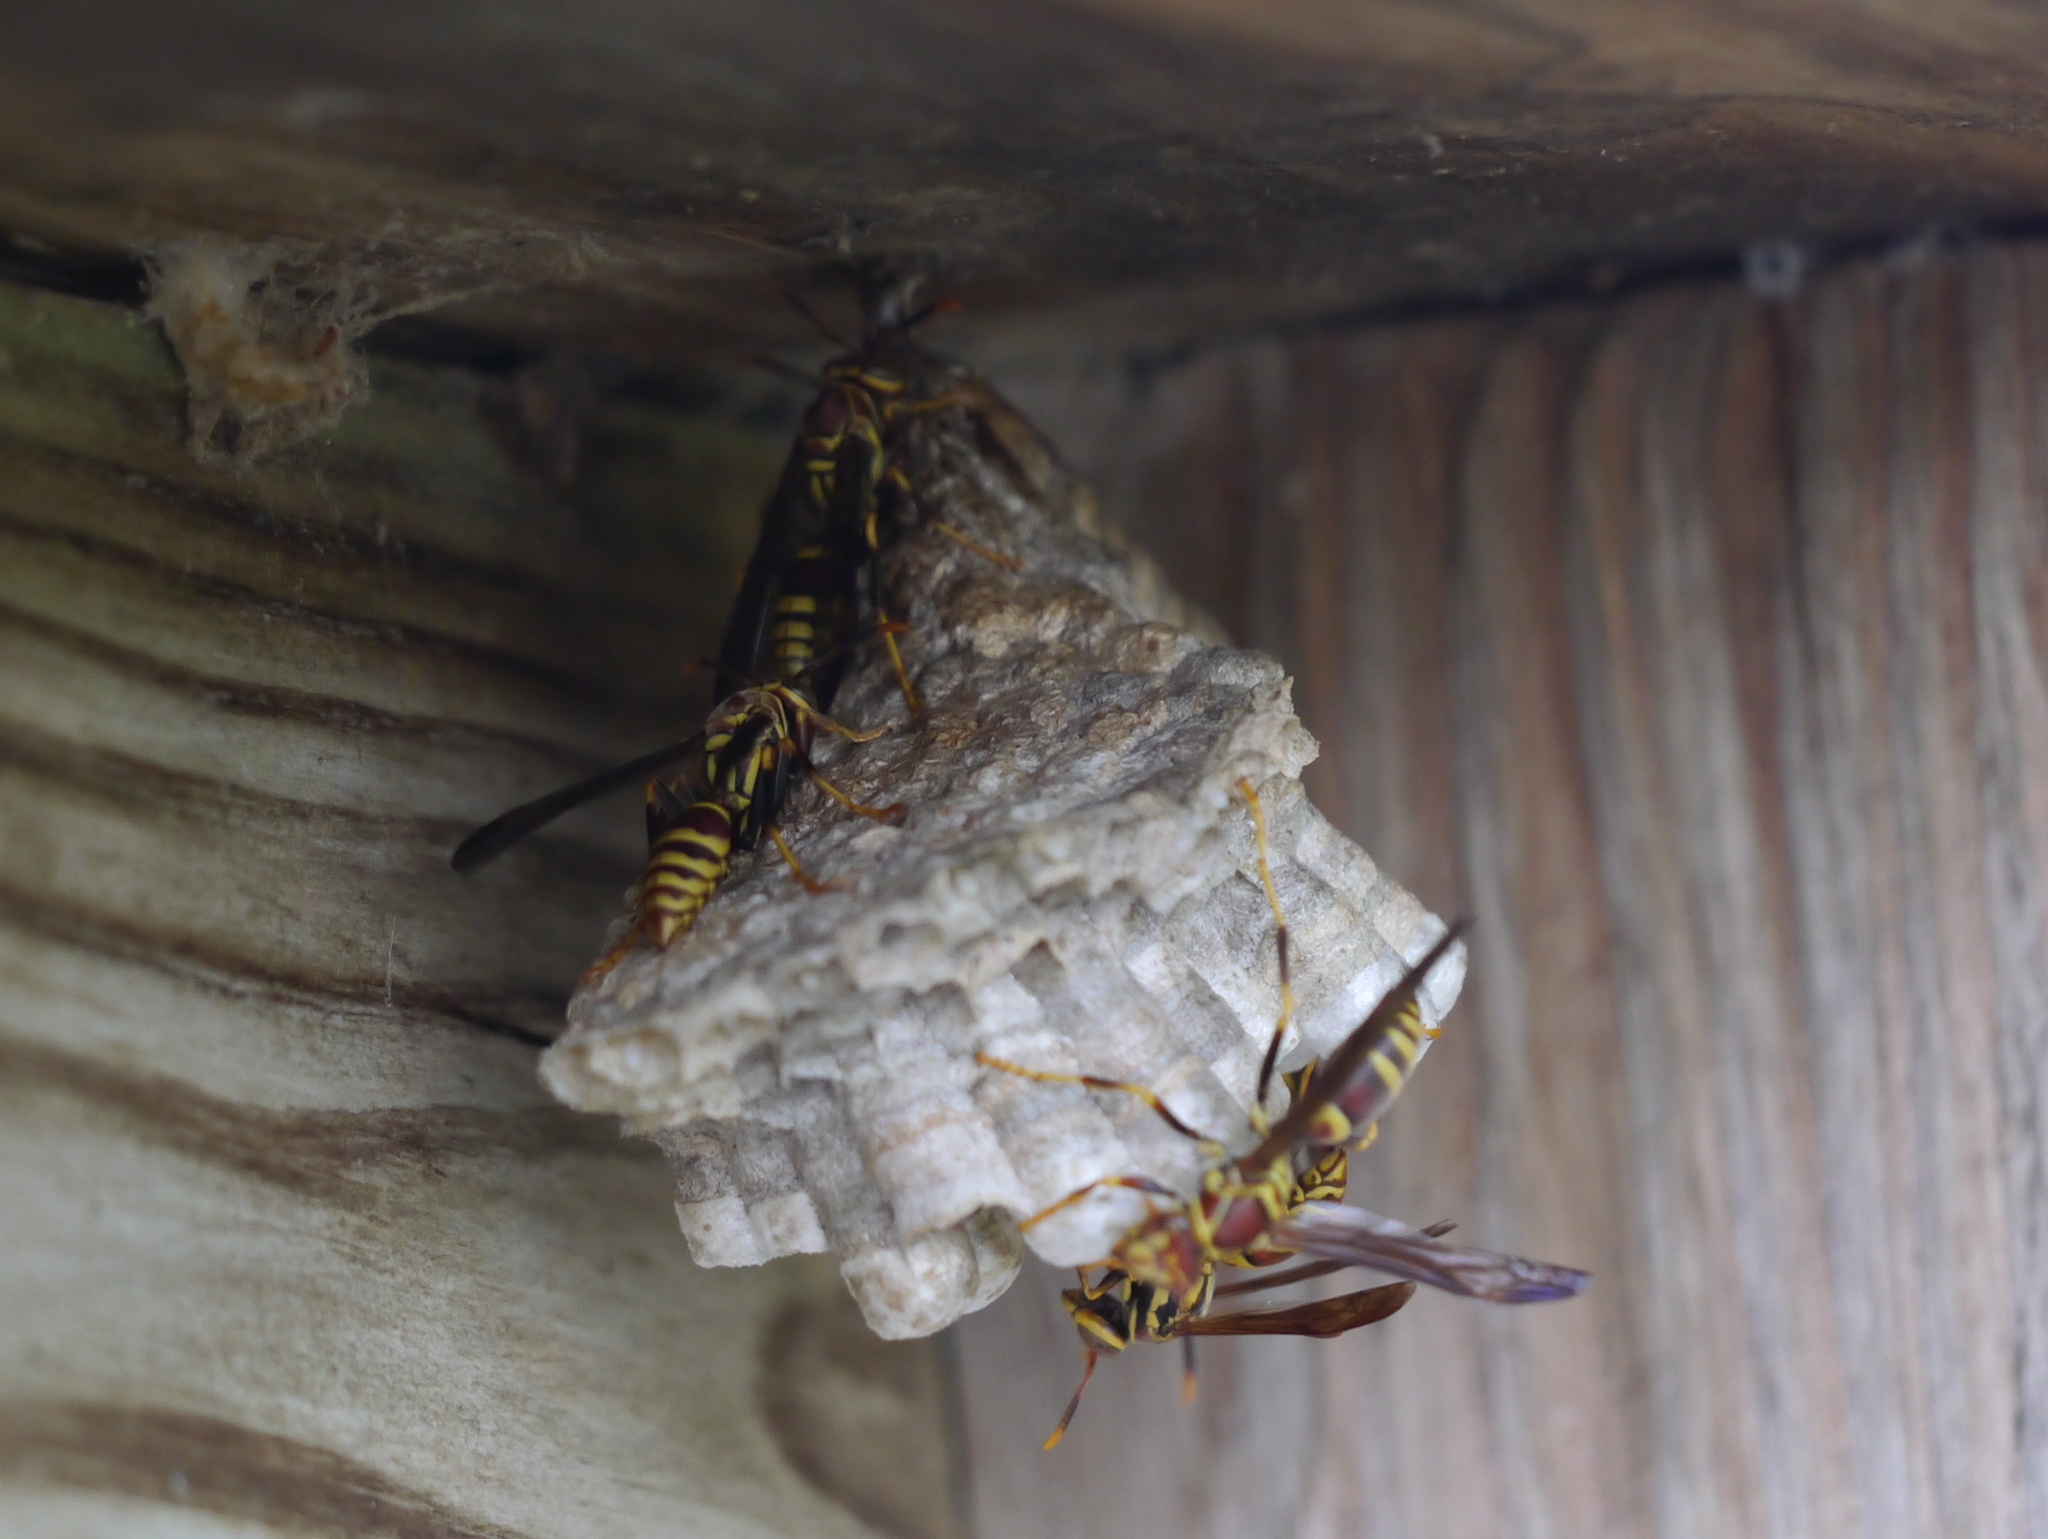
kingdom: Animalia
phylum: Arthropoda
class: Insecta
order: Hymenoptera
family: Eumenidae
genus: Polistes
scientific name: Polistes exclamans
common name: Paper wasp
